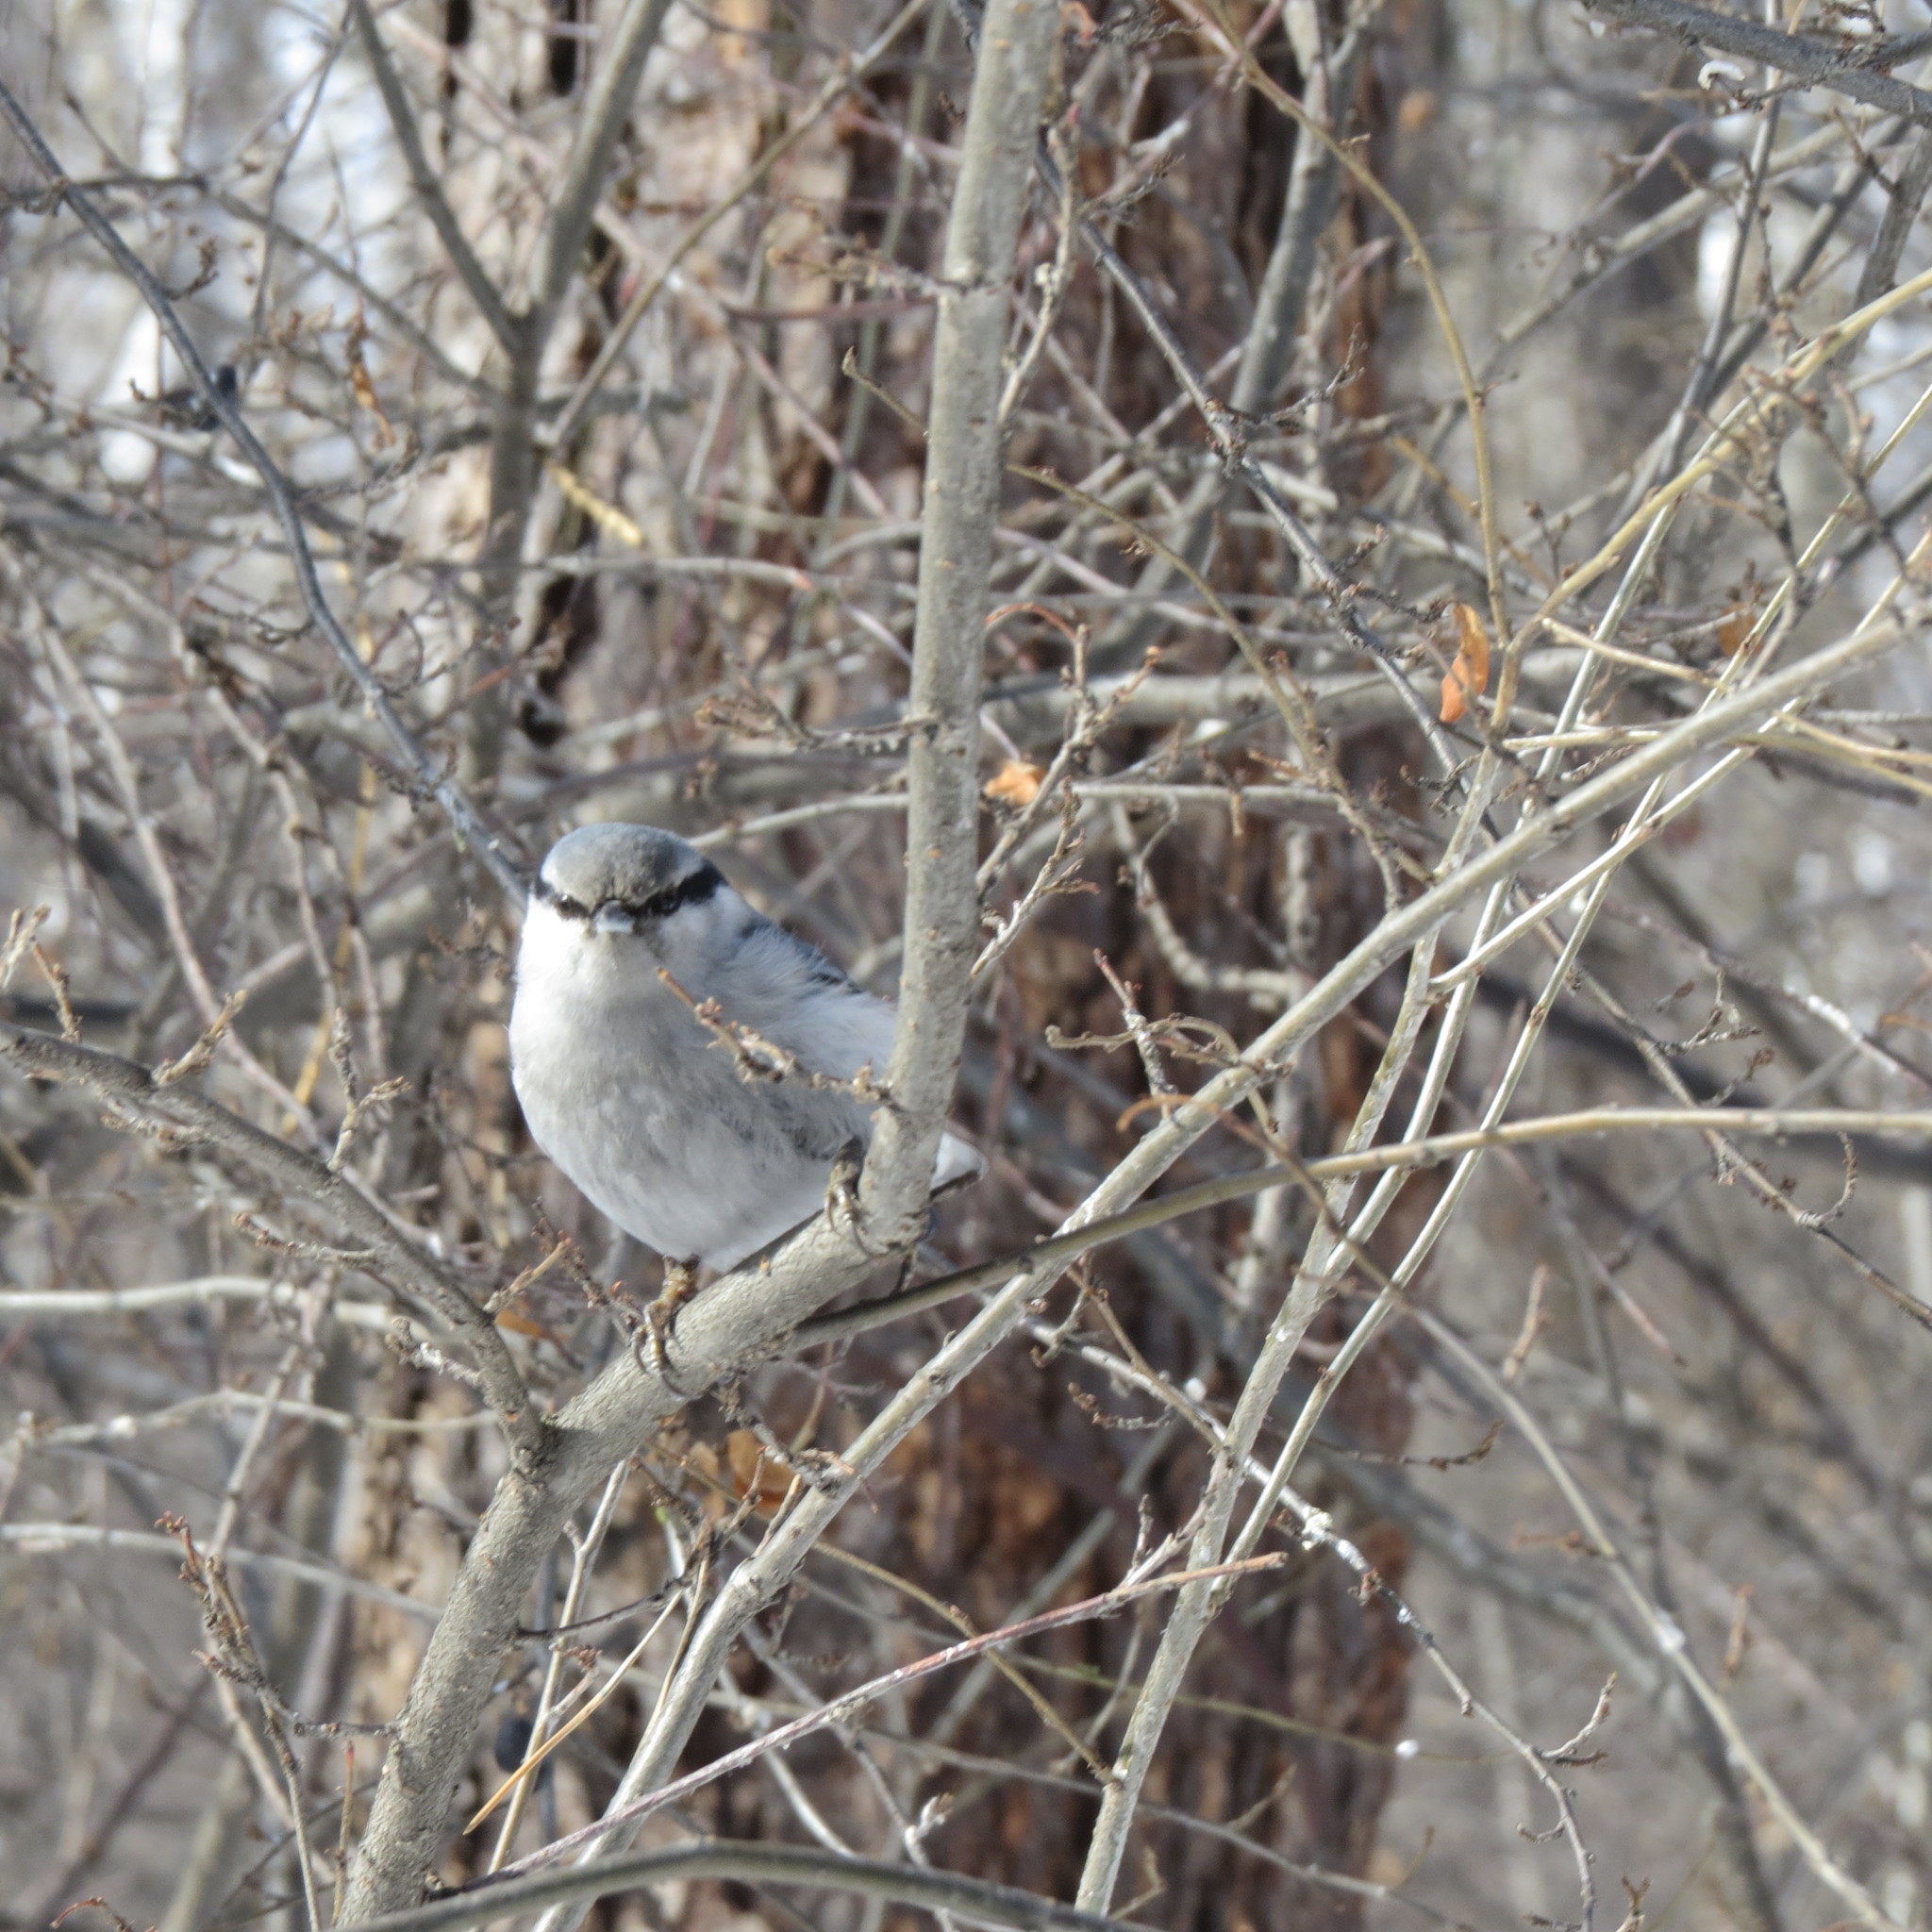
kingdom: Animalia
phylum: Chordata
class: Aves
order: Passeriformes
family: Sittidae
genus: Sitta
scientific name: Sitta europaea
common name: Eurasian nuthatch
